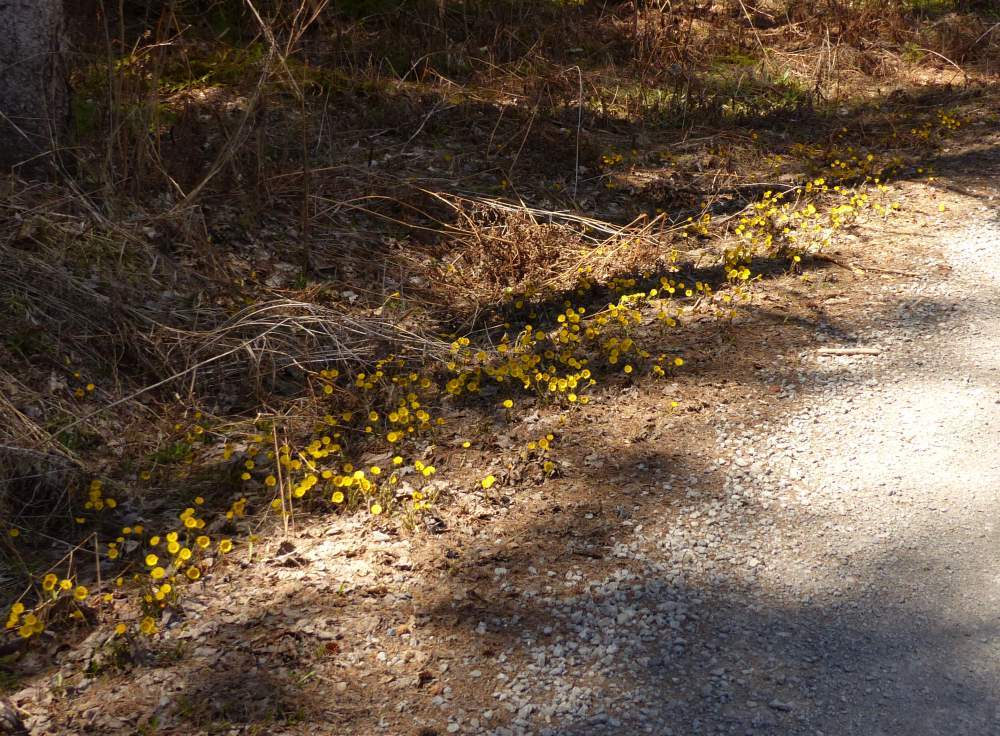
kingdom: Plantae
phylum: Tracheophyta
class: Magnoliopsida
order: Asterales
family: Asteraceae
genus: Tussilago
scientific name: Tussilago farfara
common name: Coltsfoot
